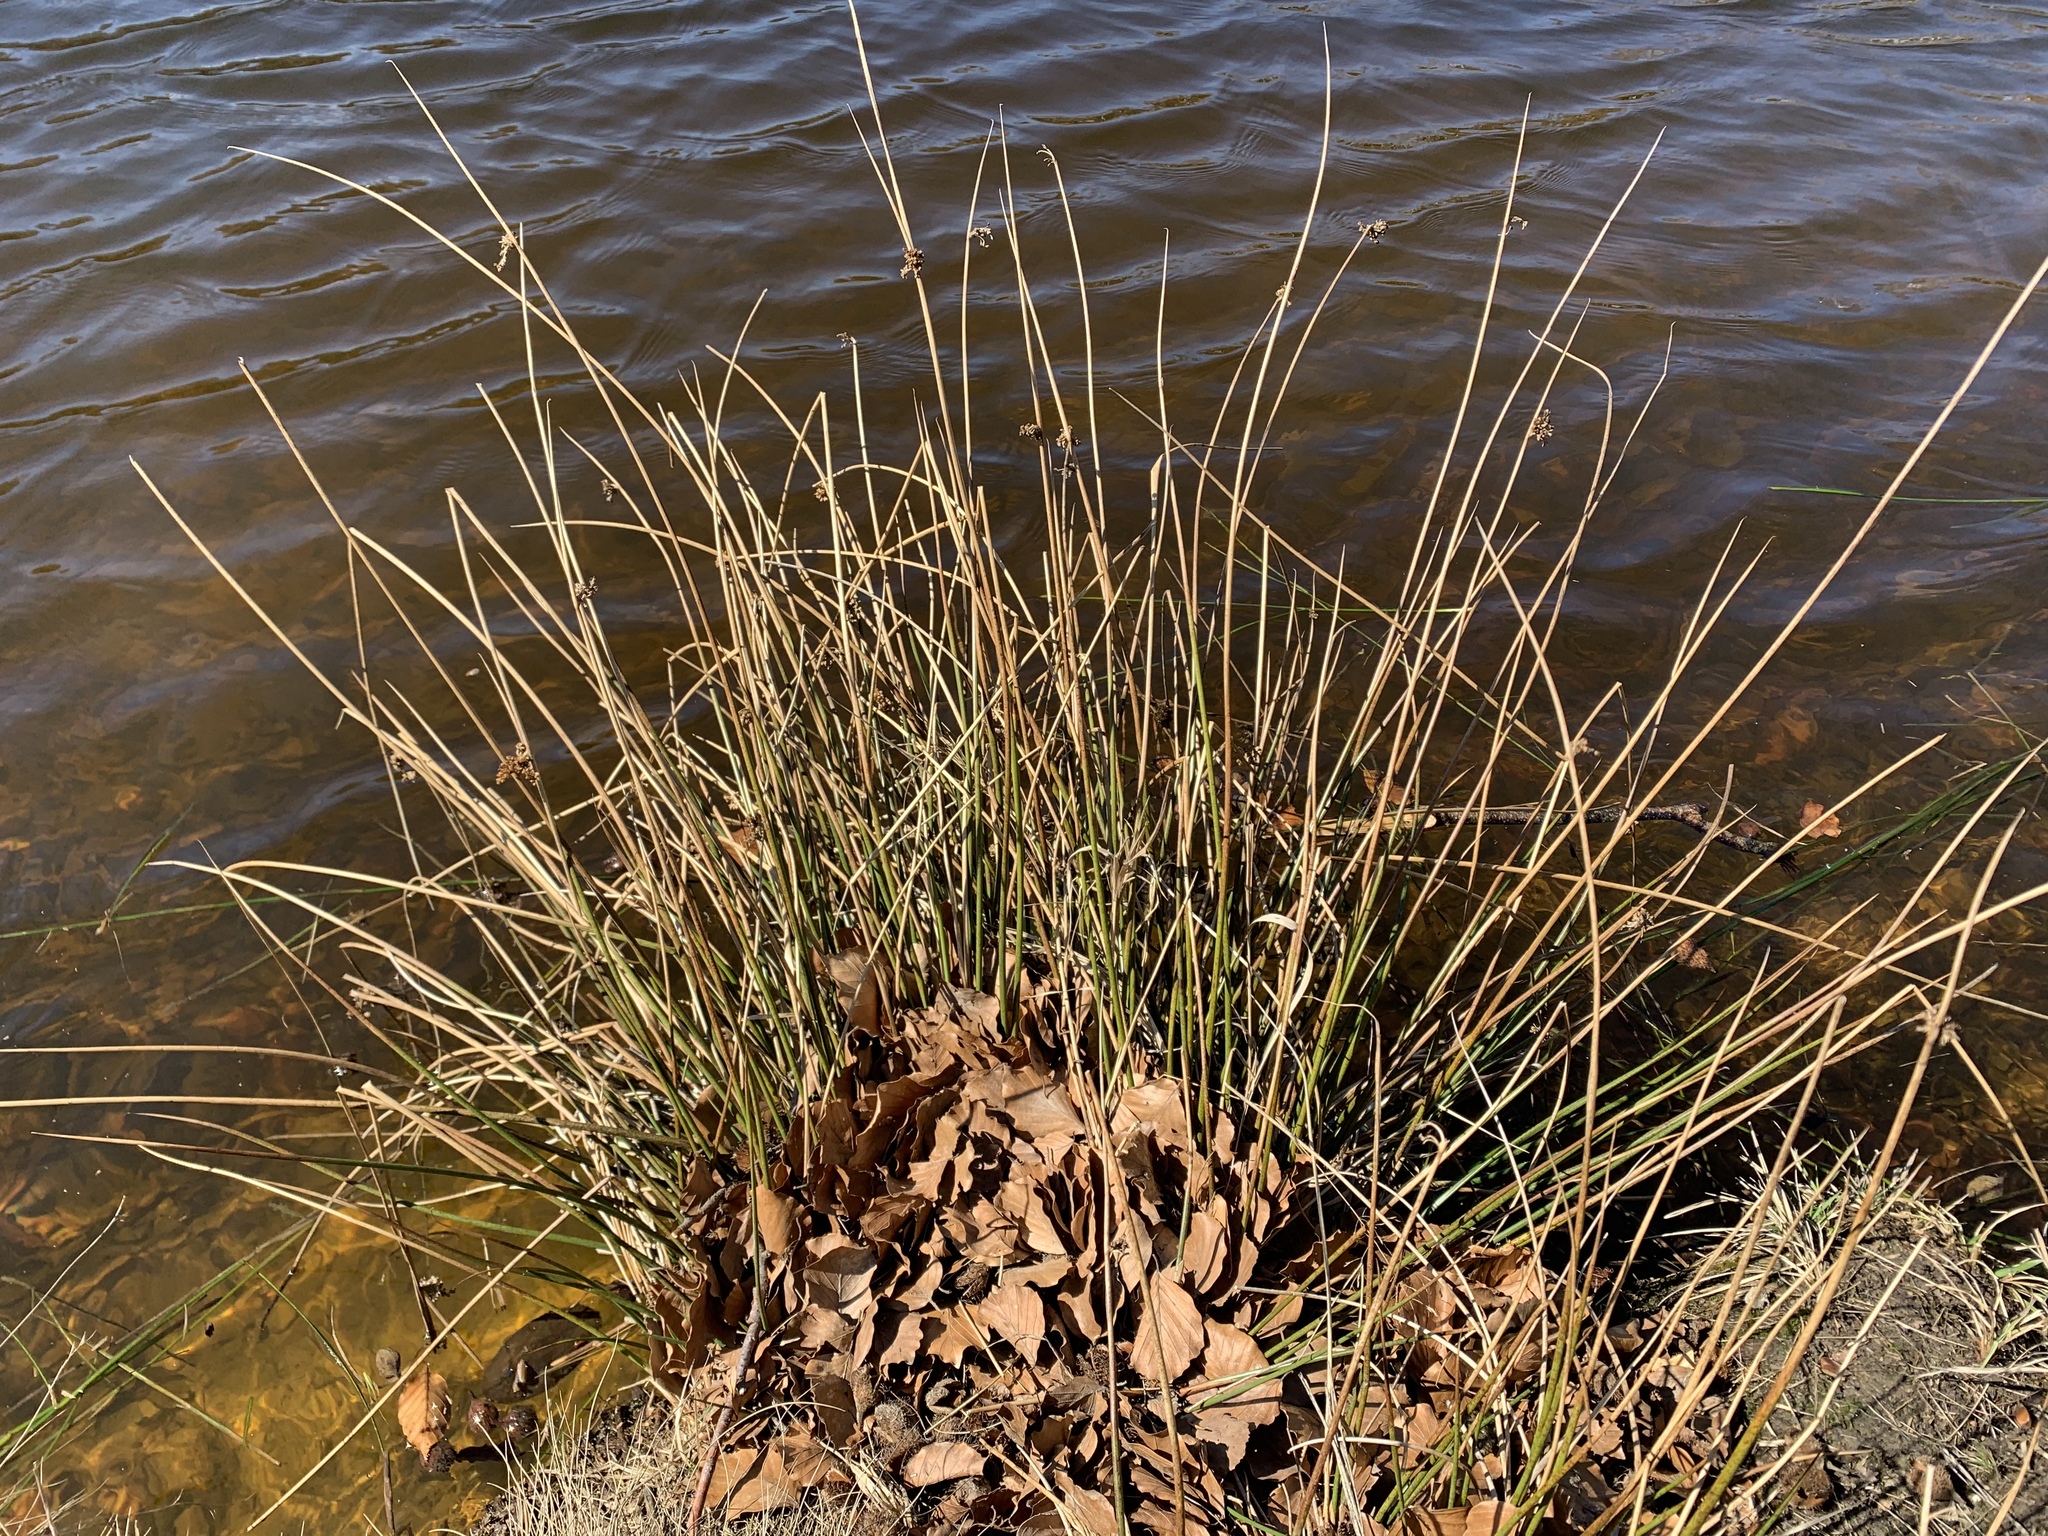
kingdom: Plantae
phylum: Tracheophyta
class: Liliopsida
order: Poales
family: Juncaceae
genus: Juncus
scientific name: Juncus effusus
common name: Soft rush
